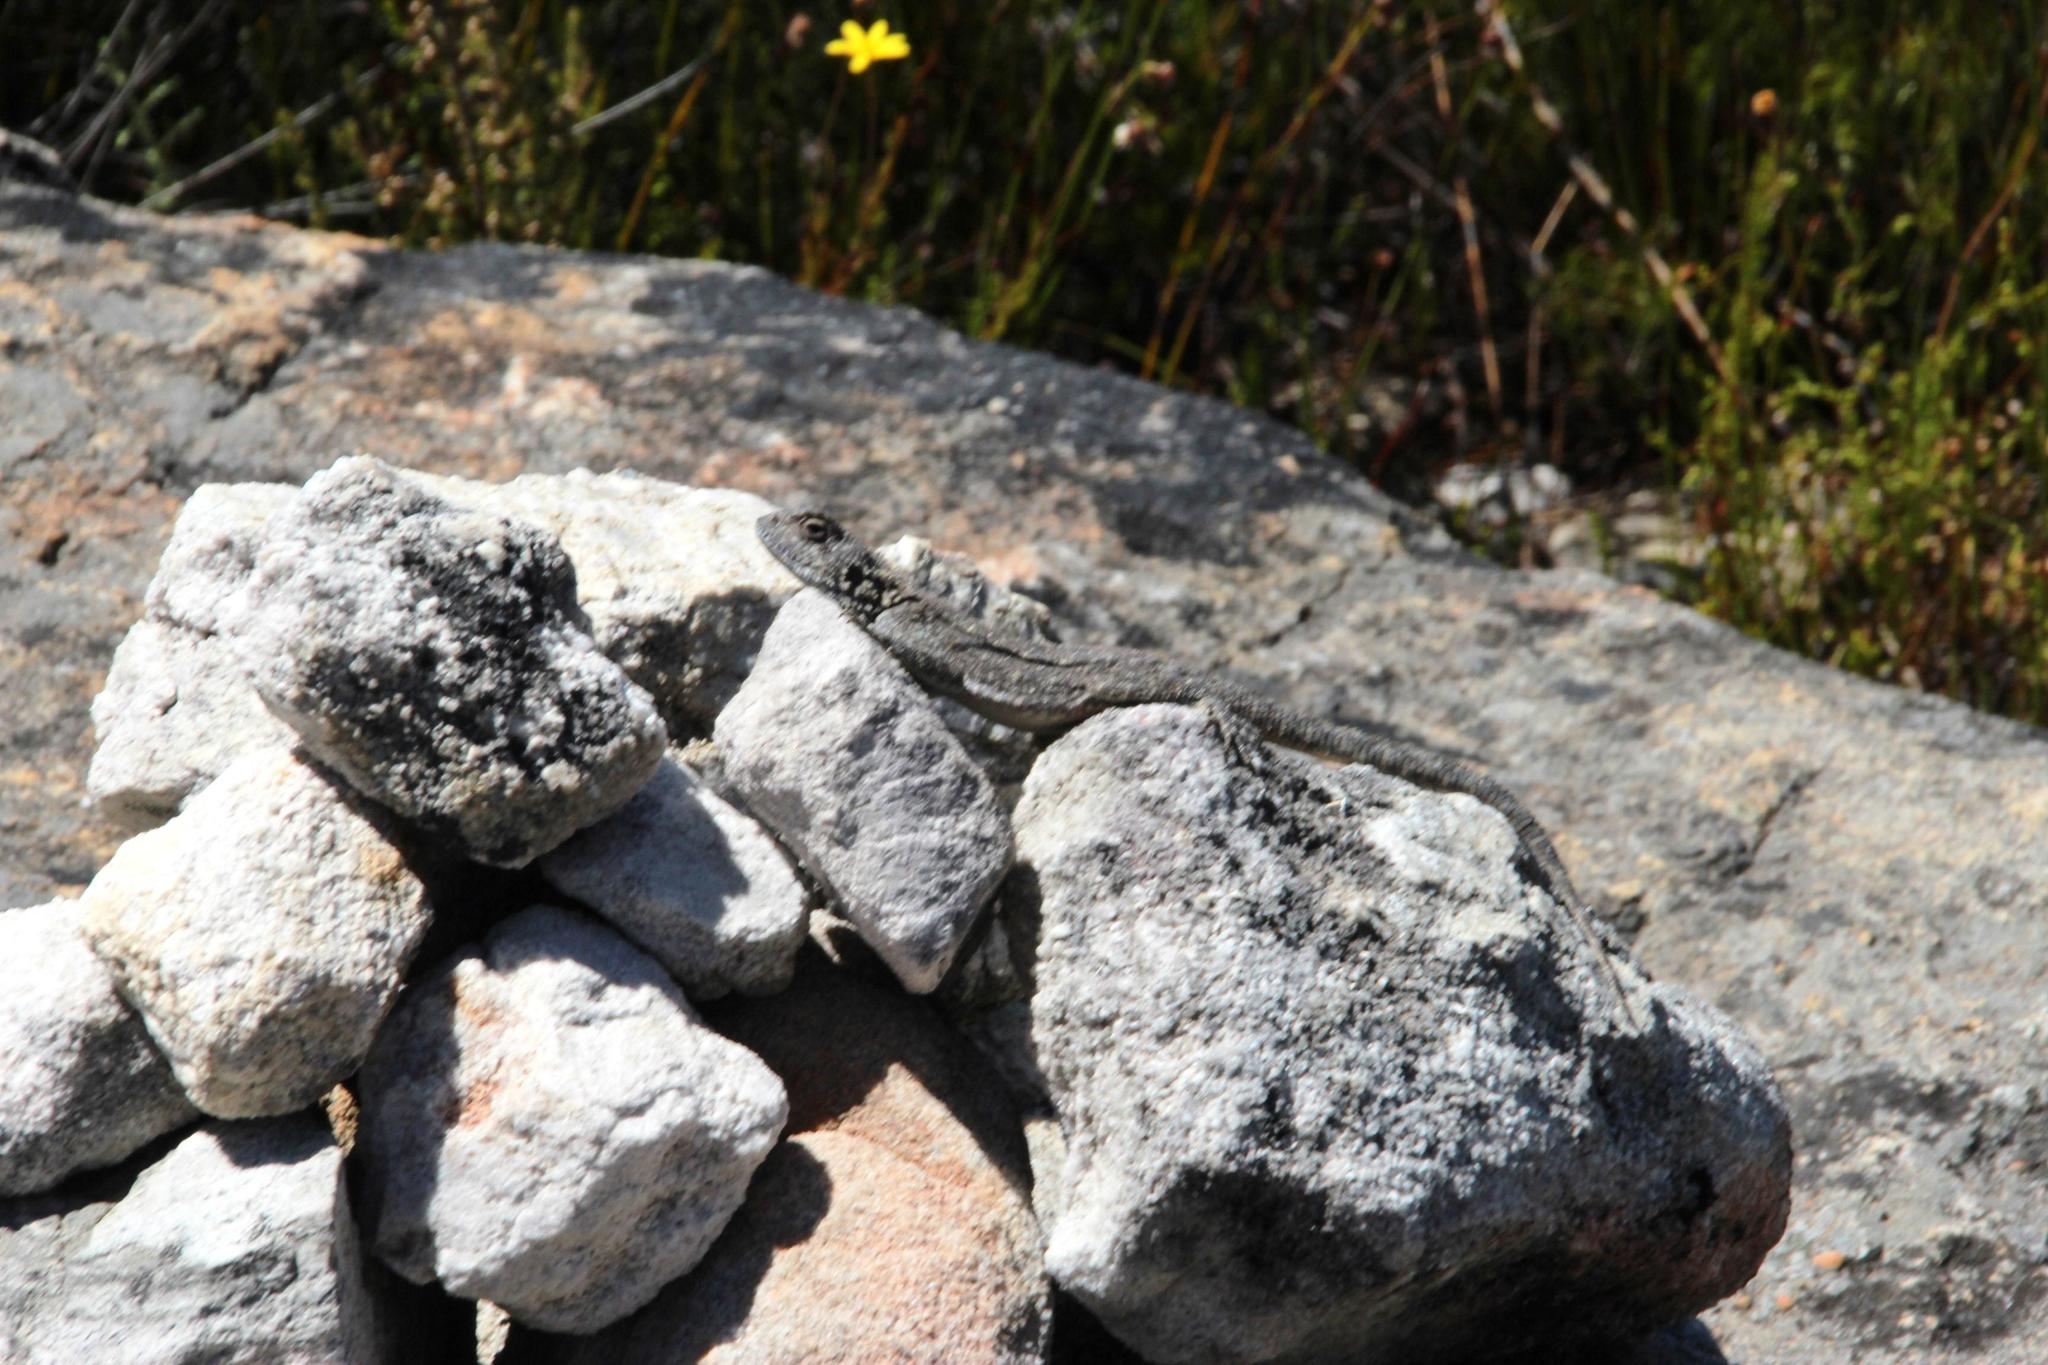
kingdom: Animalia
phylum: Chordata
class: Squamata
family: Agamidae
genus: Agama
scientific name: Agama atra
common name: Southern african rock agama
